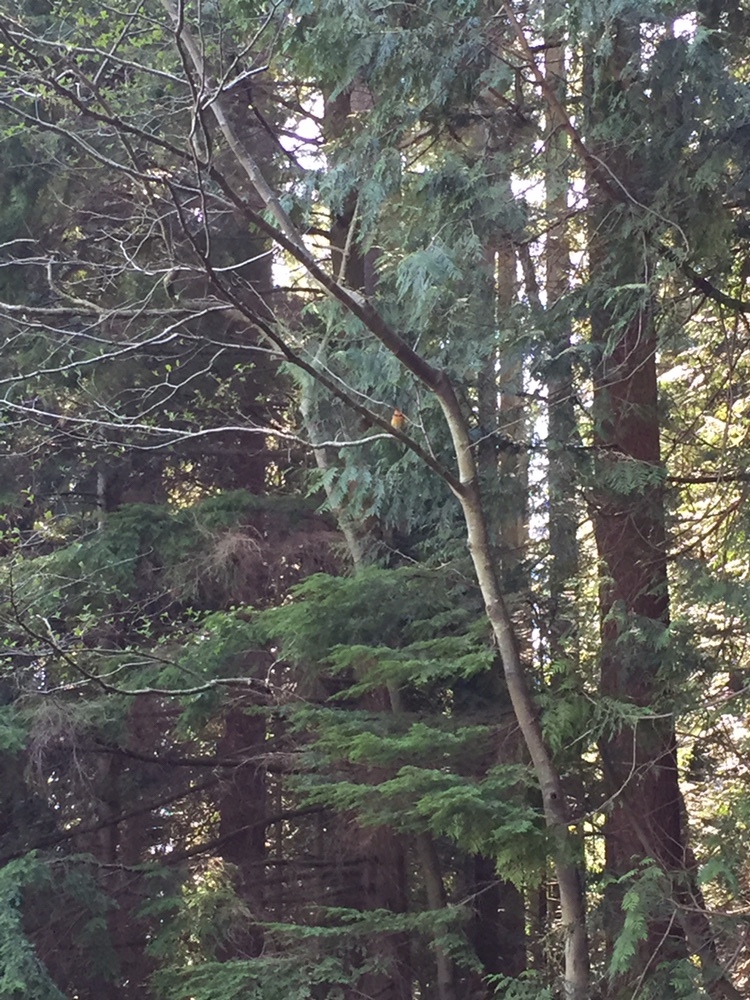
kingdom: Animalia
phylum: Chordata
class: Aves
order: Passeriformes
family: Turdidae
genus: Ixoreus
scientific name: Ixoreus naevius
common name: Varied thrush
